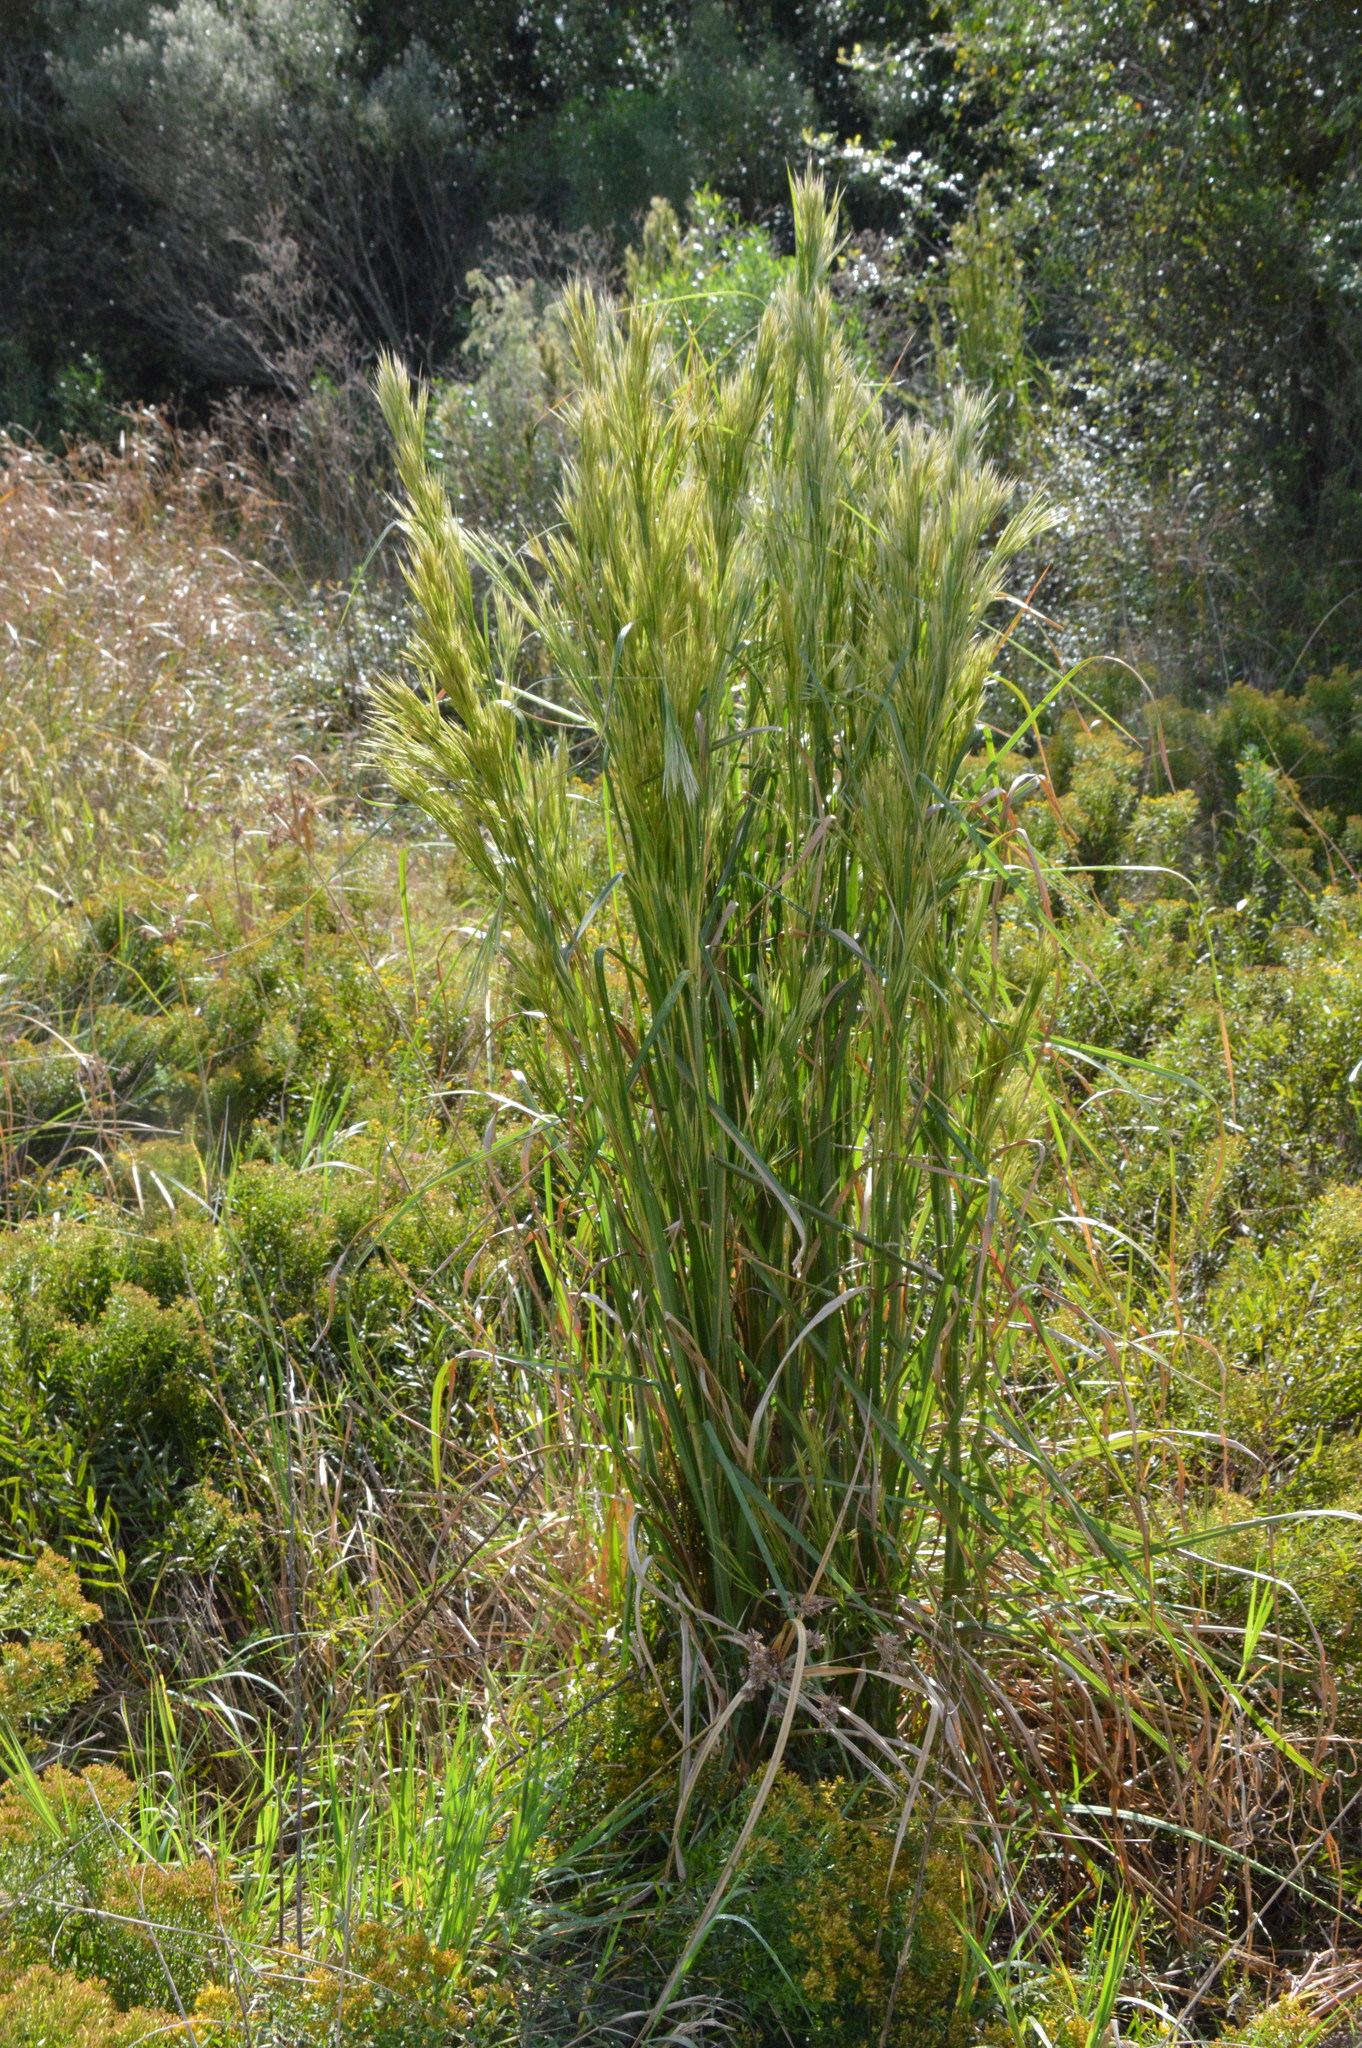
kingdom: Plantae
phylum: Tracheophyta
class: Liliopsida
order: Poales
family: Poaceae
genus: Andropogon
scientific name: Andropogon tenuispatheus
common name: Bushy bluestem
